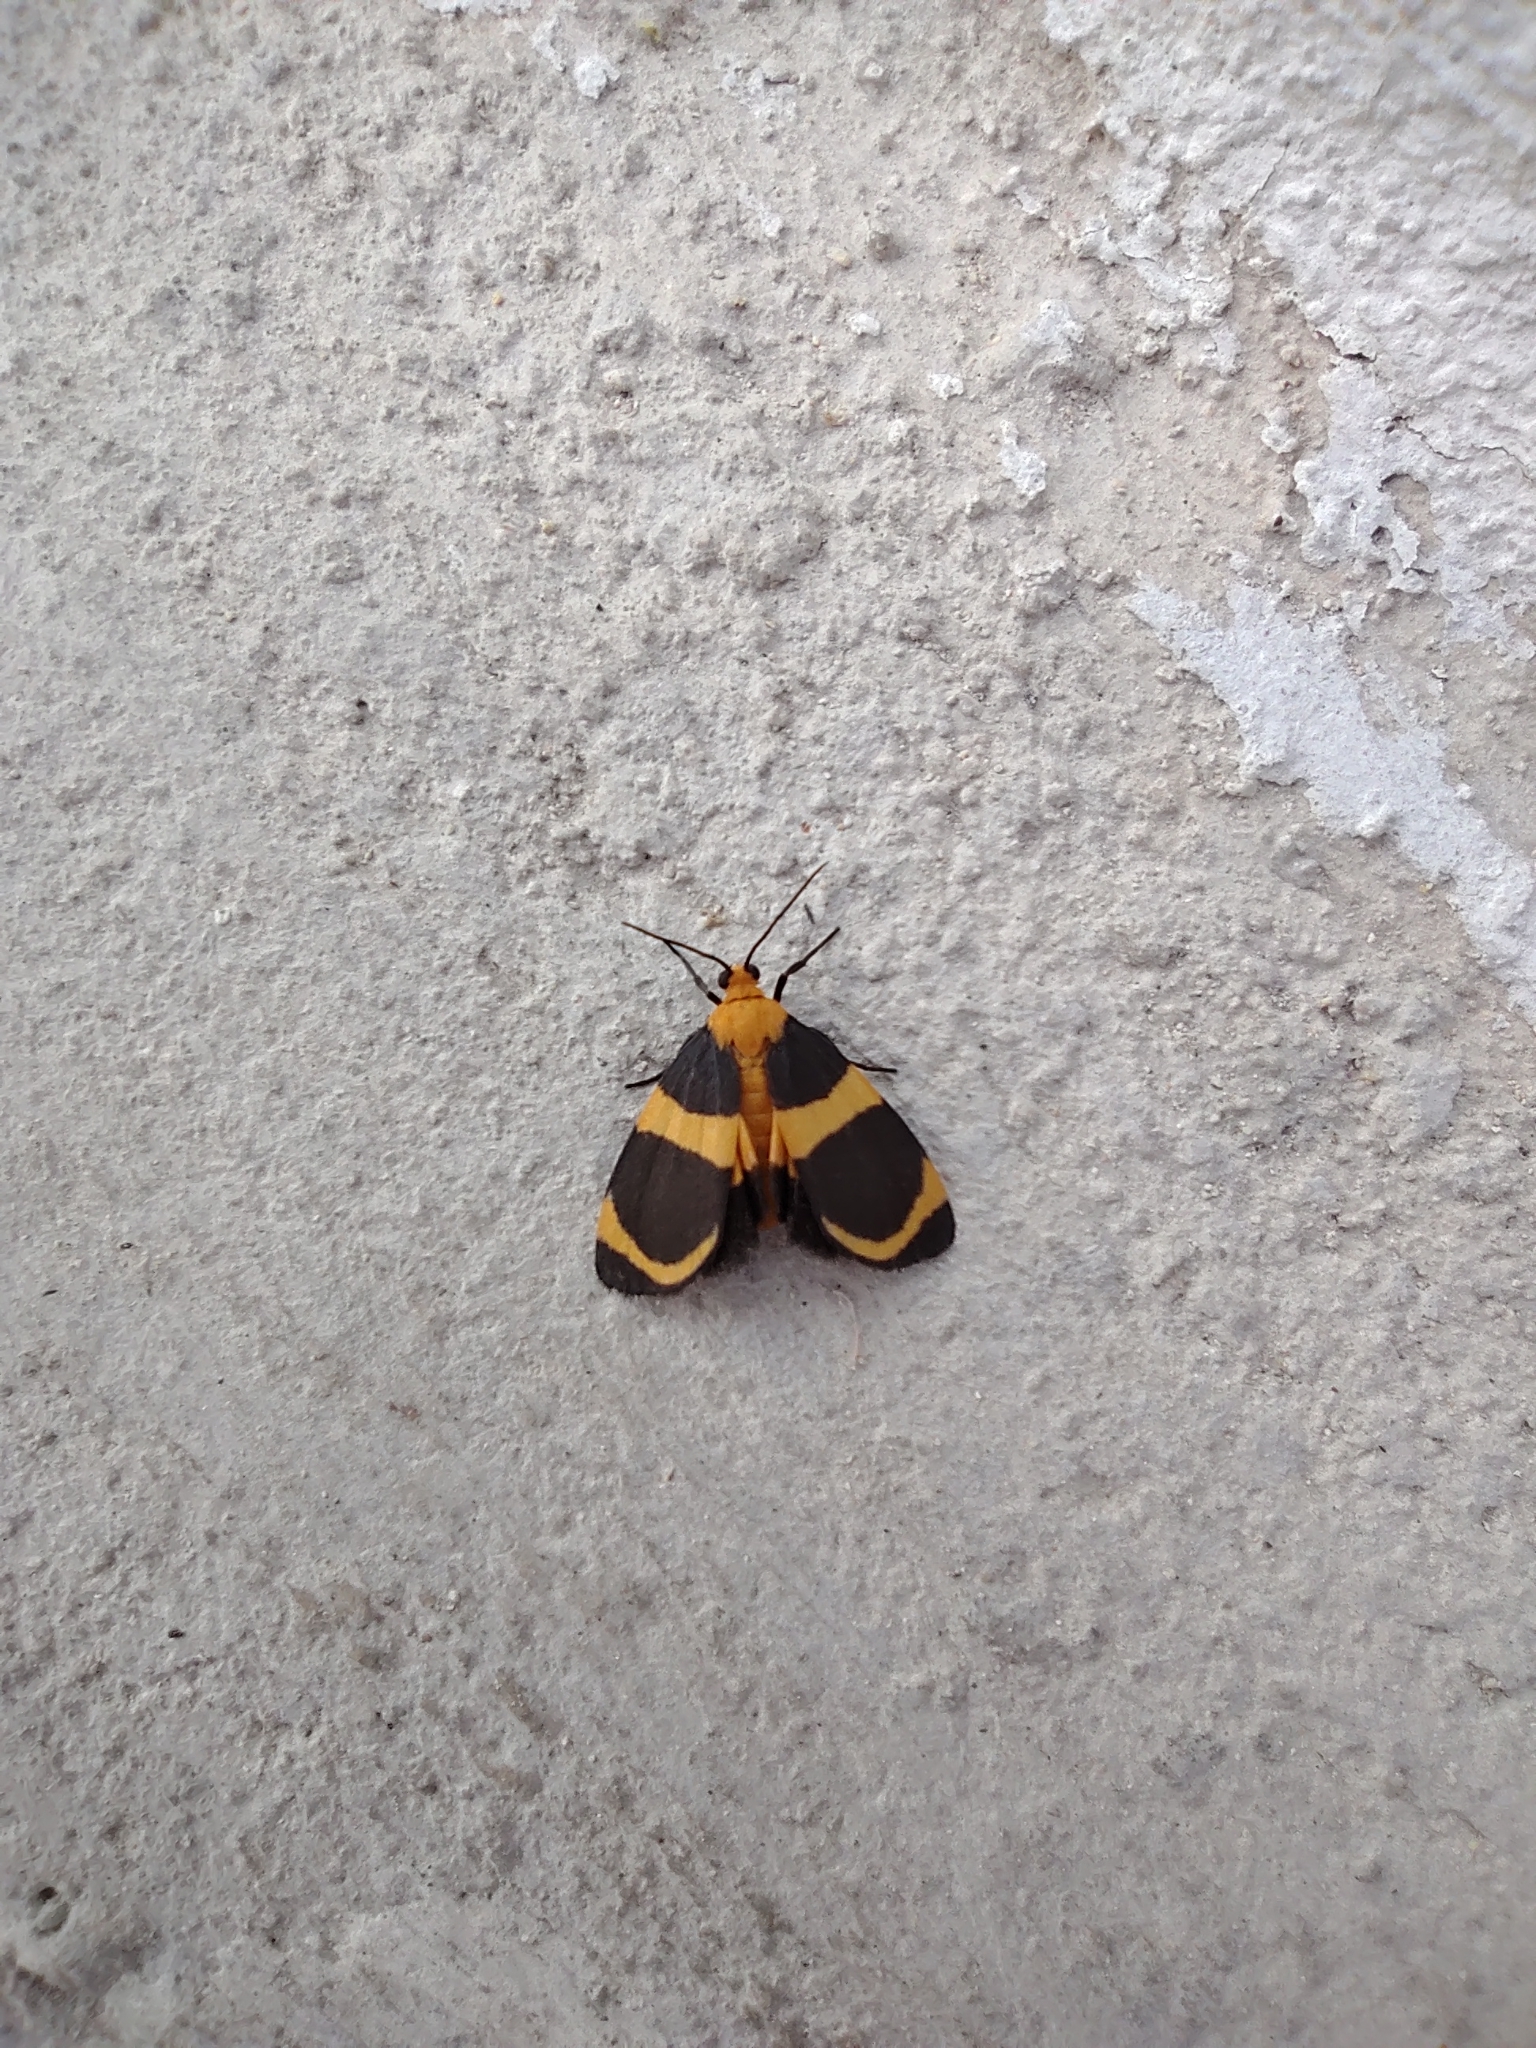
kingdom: Animalia
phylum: Arthropoda
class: Insecta
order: Lepidoptera
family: Erebidae
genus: Eudesmia
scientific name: Eudesmia menea
